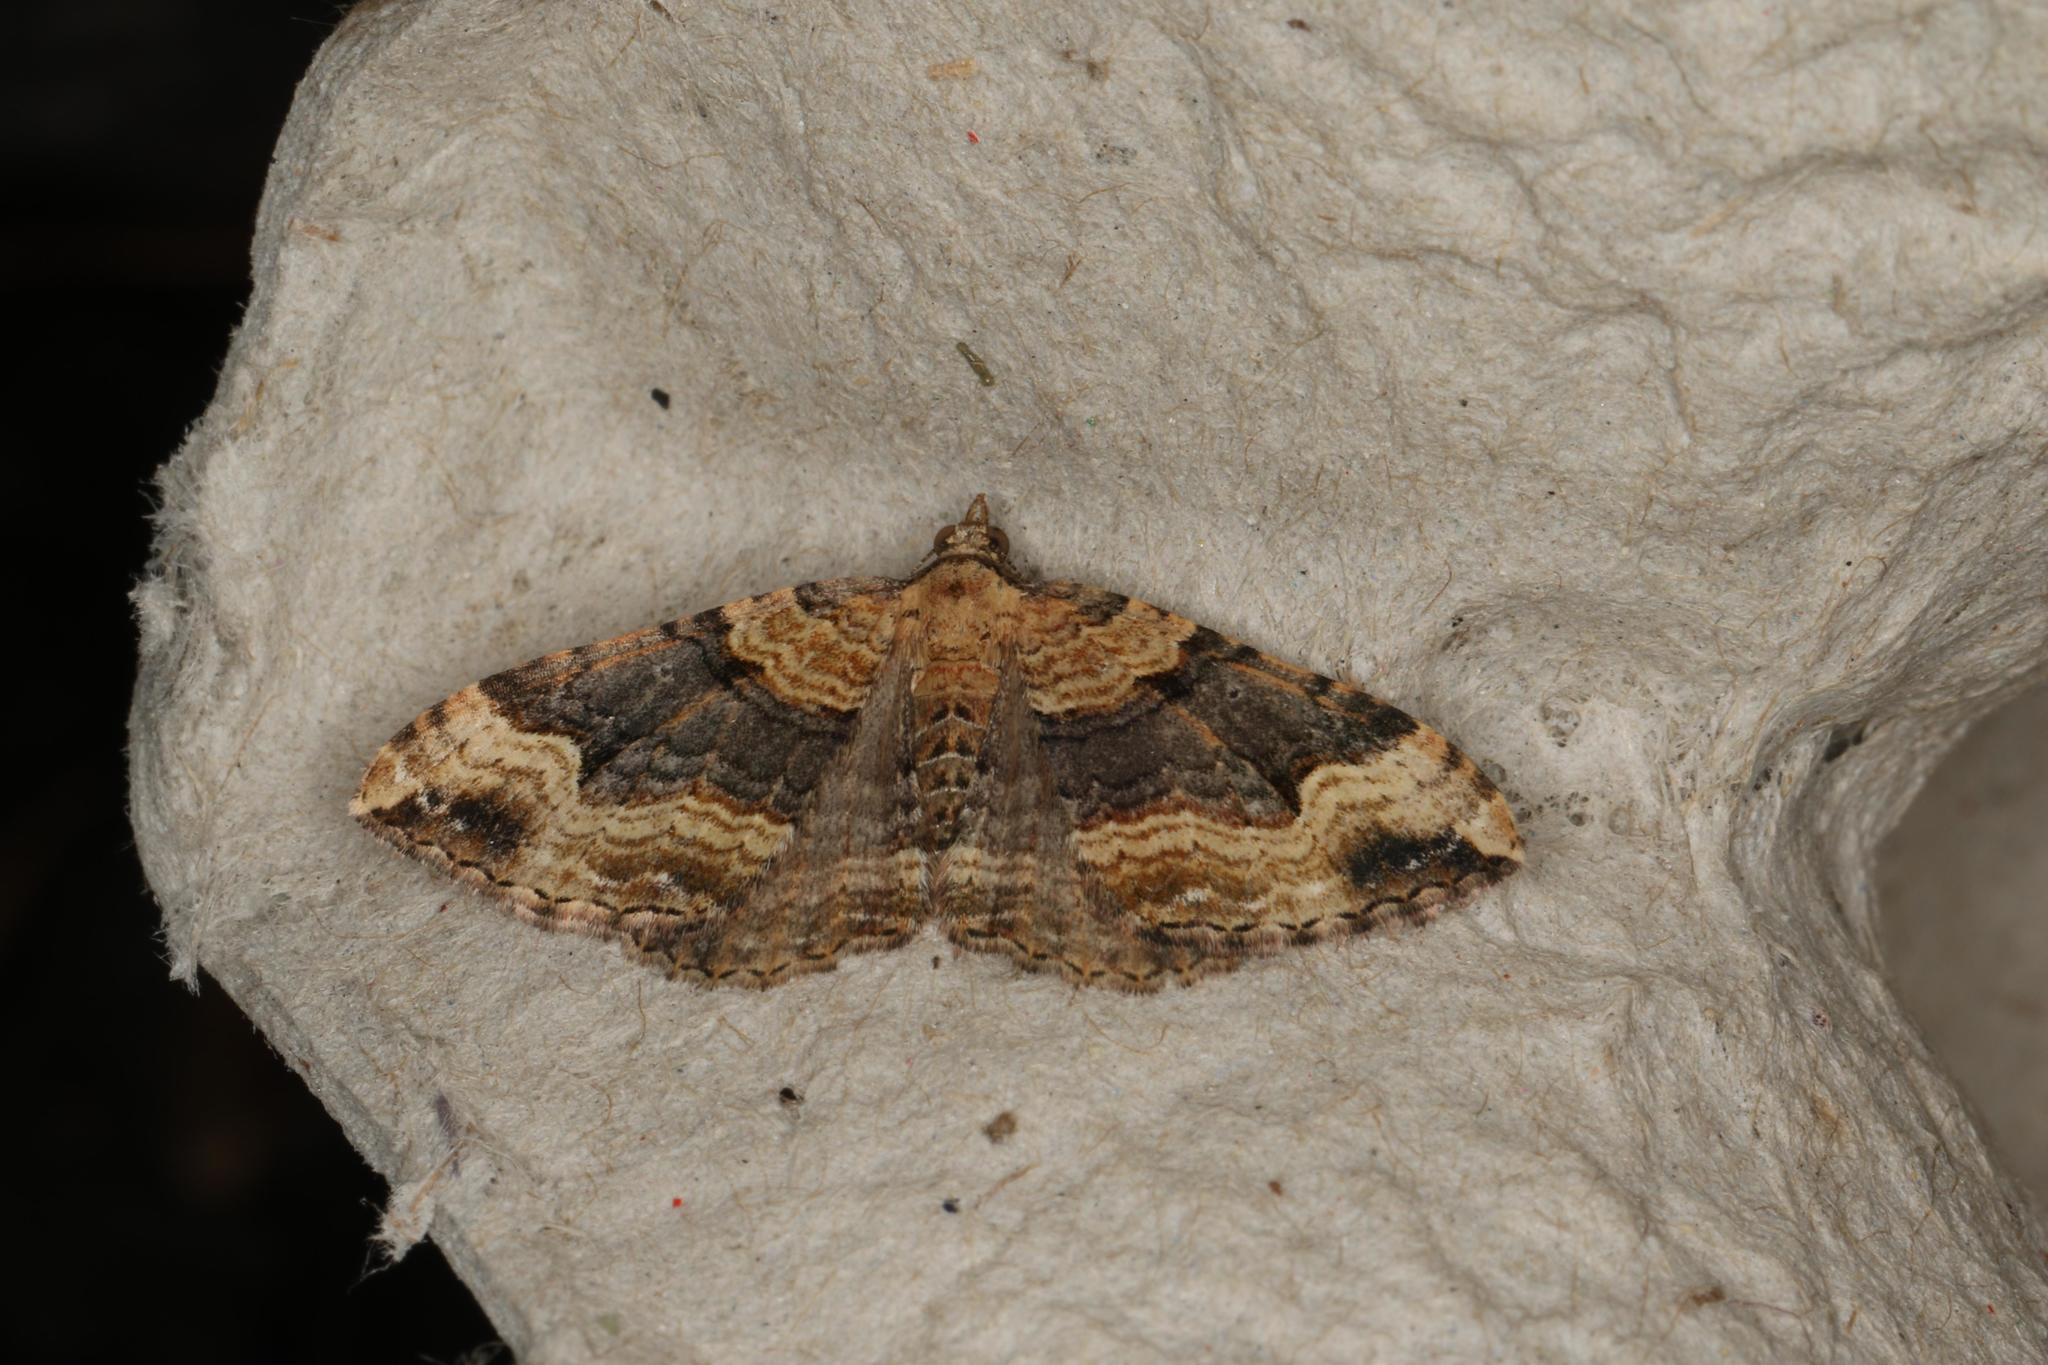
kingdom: Animalia
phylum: Arthropoda
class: Insecta
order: Lepidoptera
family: Geometridae
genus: Epyaxa
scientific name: Epyaxa subidaria
